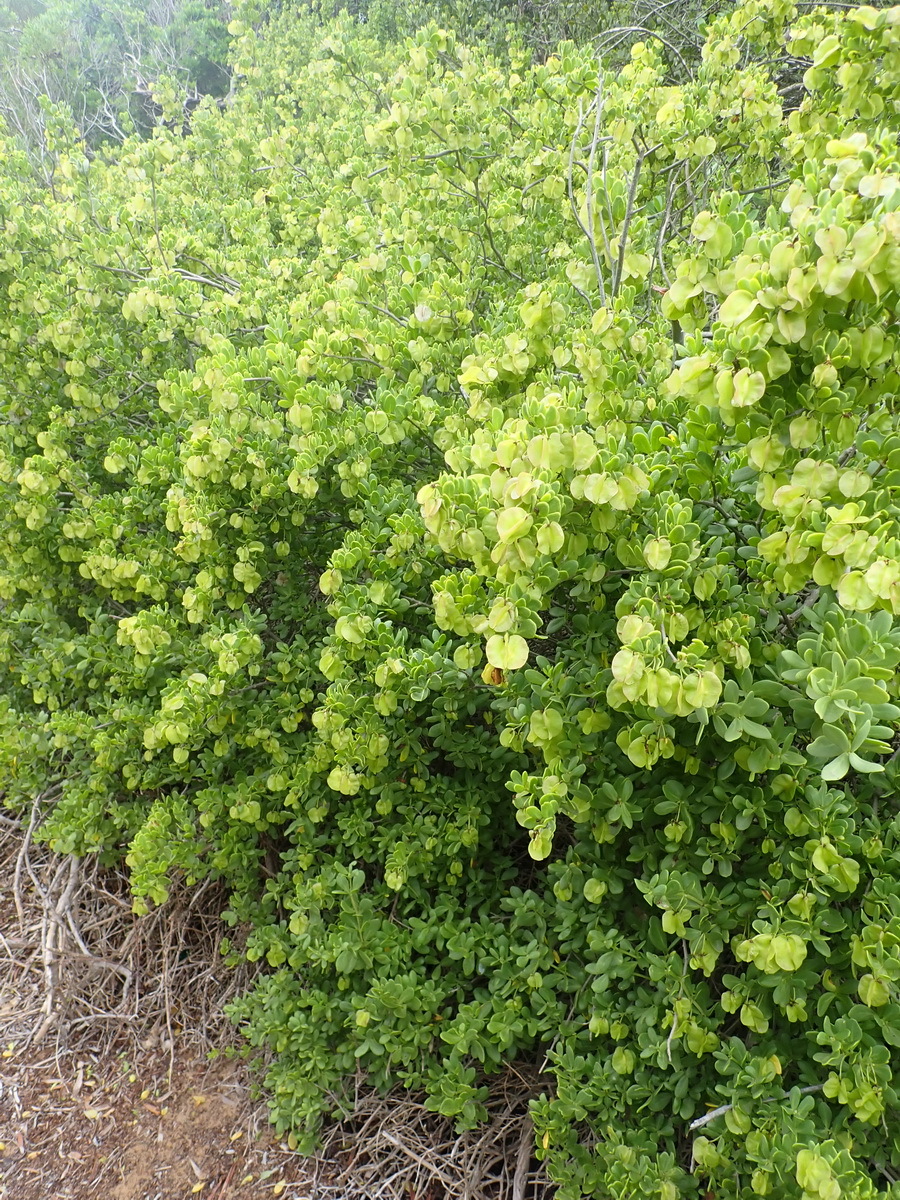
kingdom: Plantae
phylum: Tracheophyta
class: Magnoliopsida
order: Zygophyllales
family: Zygophyllaceae
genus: Roepera
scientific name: Roepera morgsana
